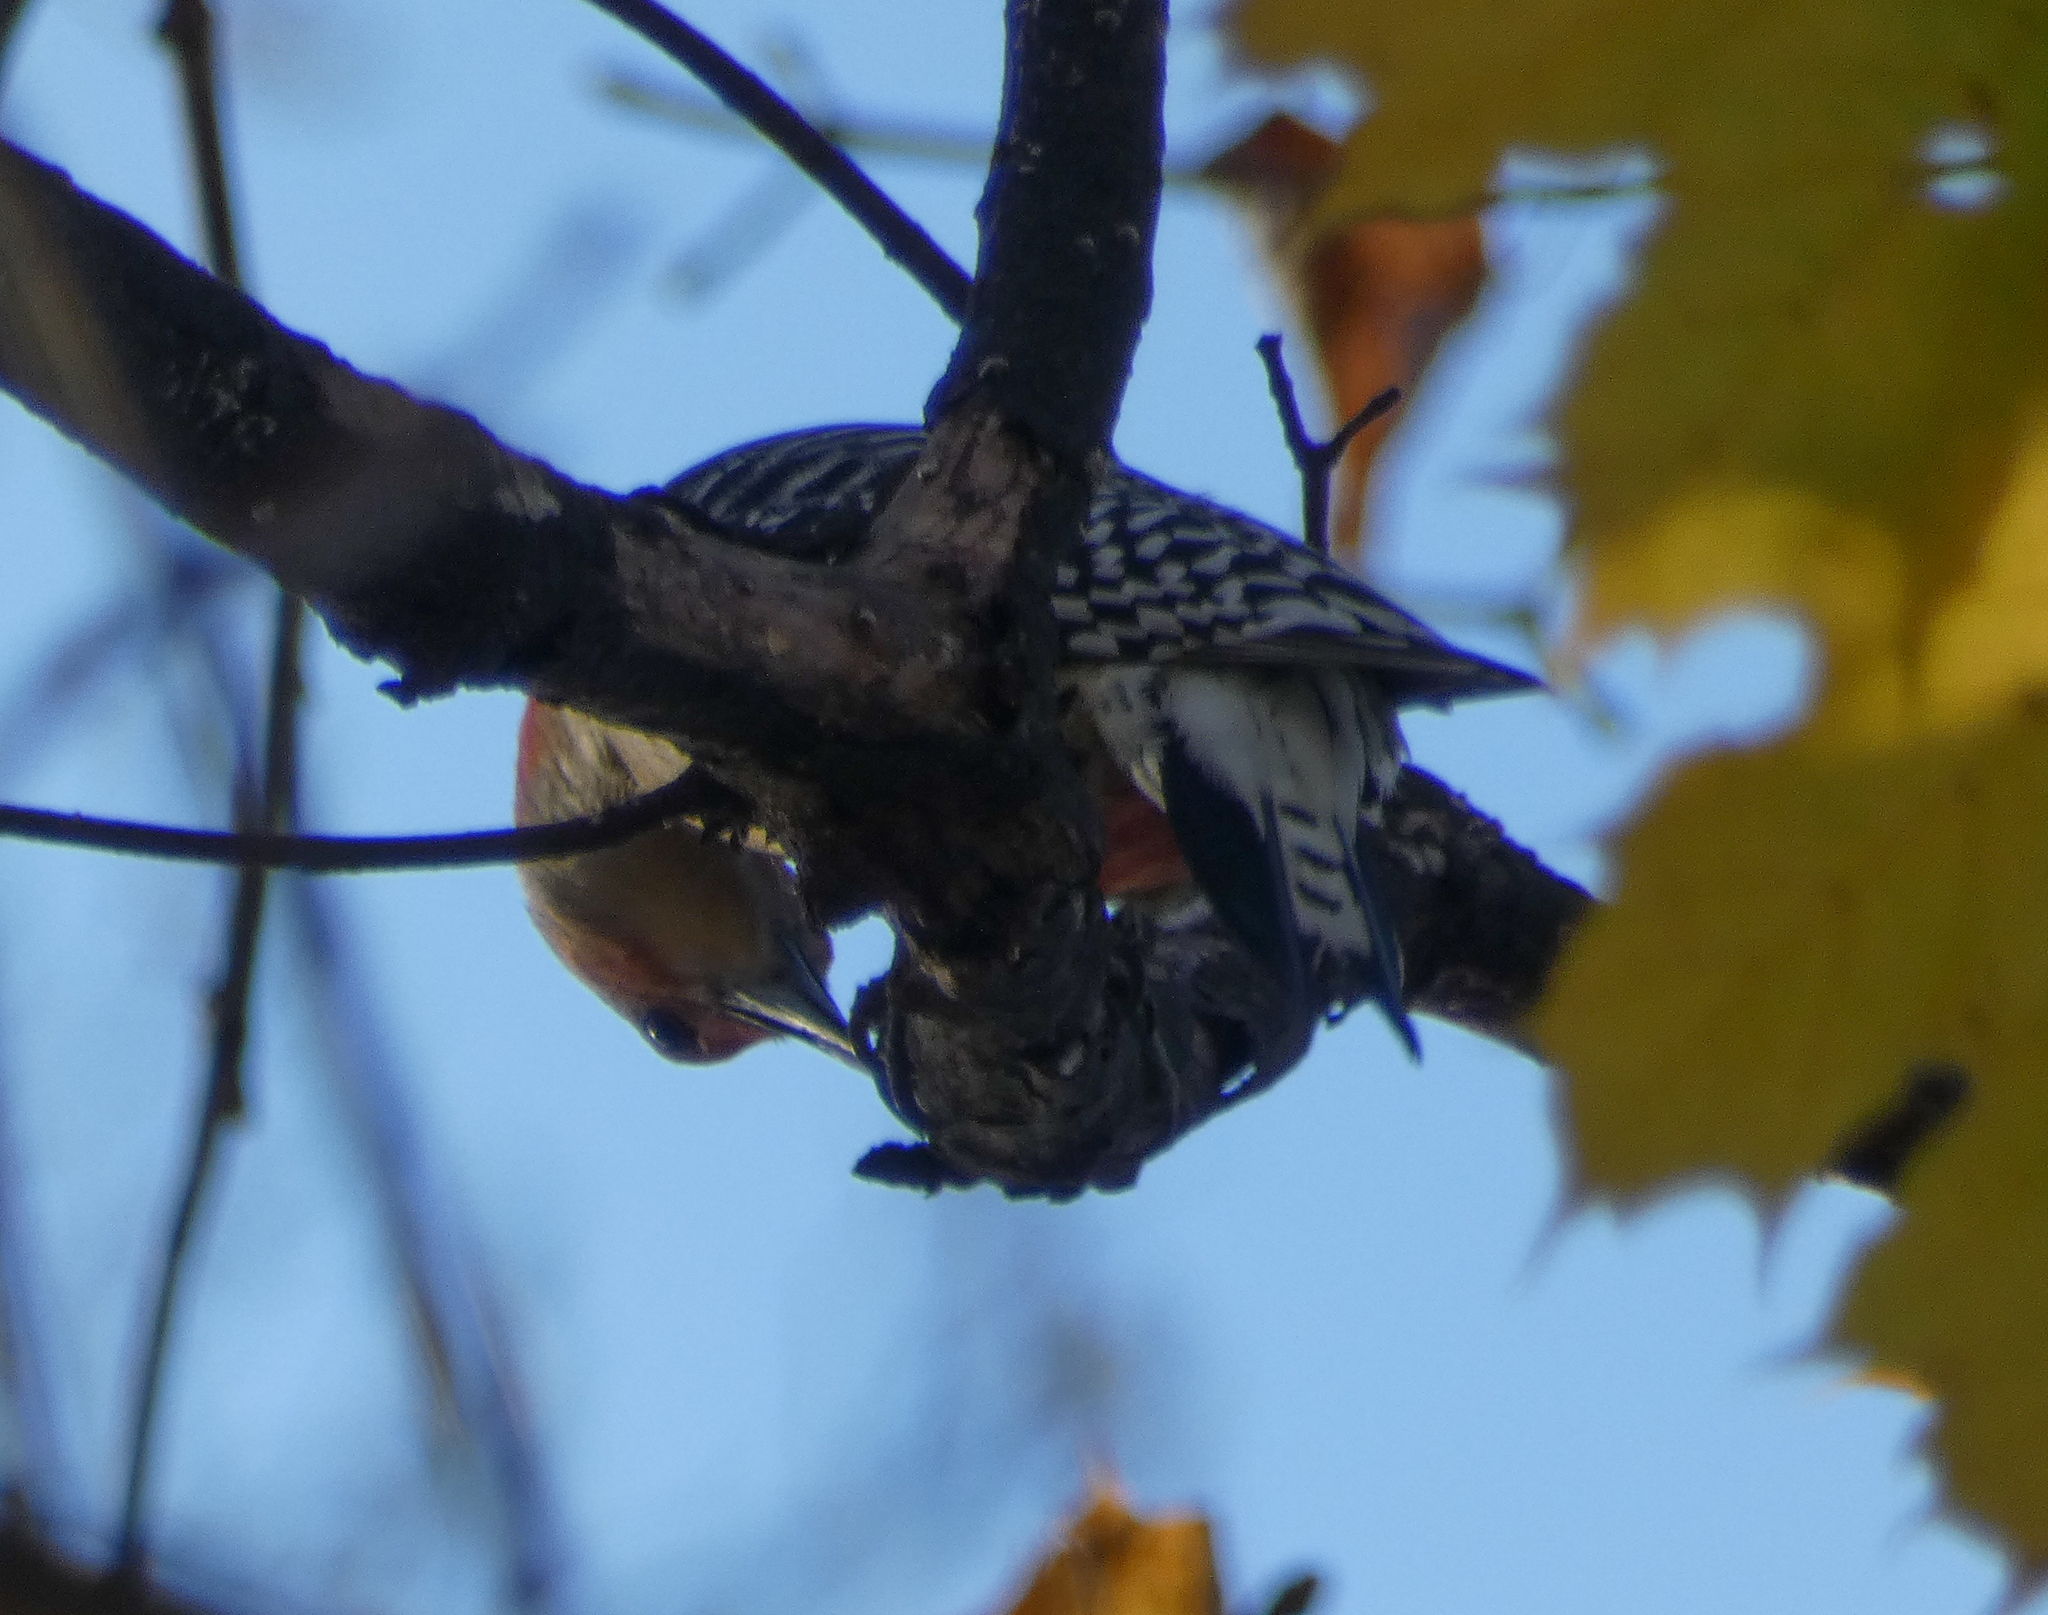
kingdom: Animalia
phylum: Chordata
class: Aves
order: Piciformes
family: Picidae
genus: Melanerpes
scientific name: Melanerpes carolinus
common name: Red-bellied woodpecker
